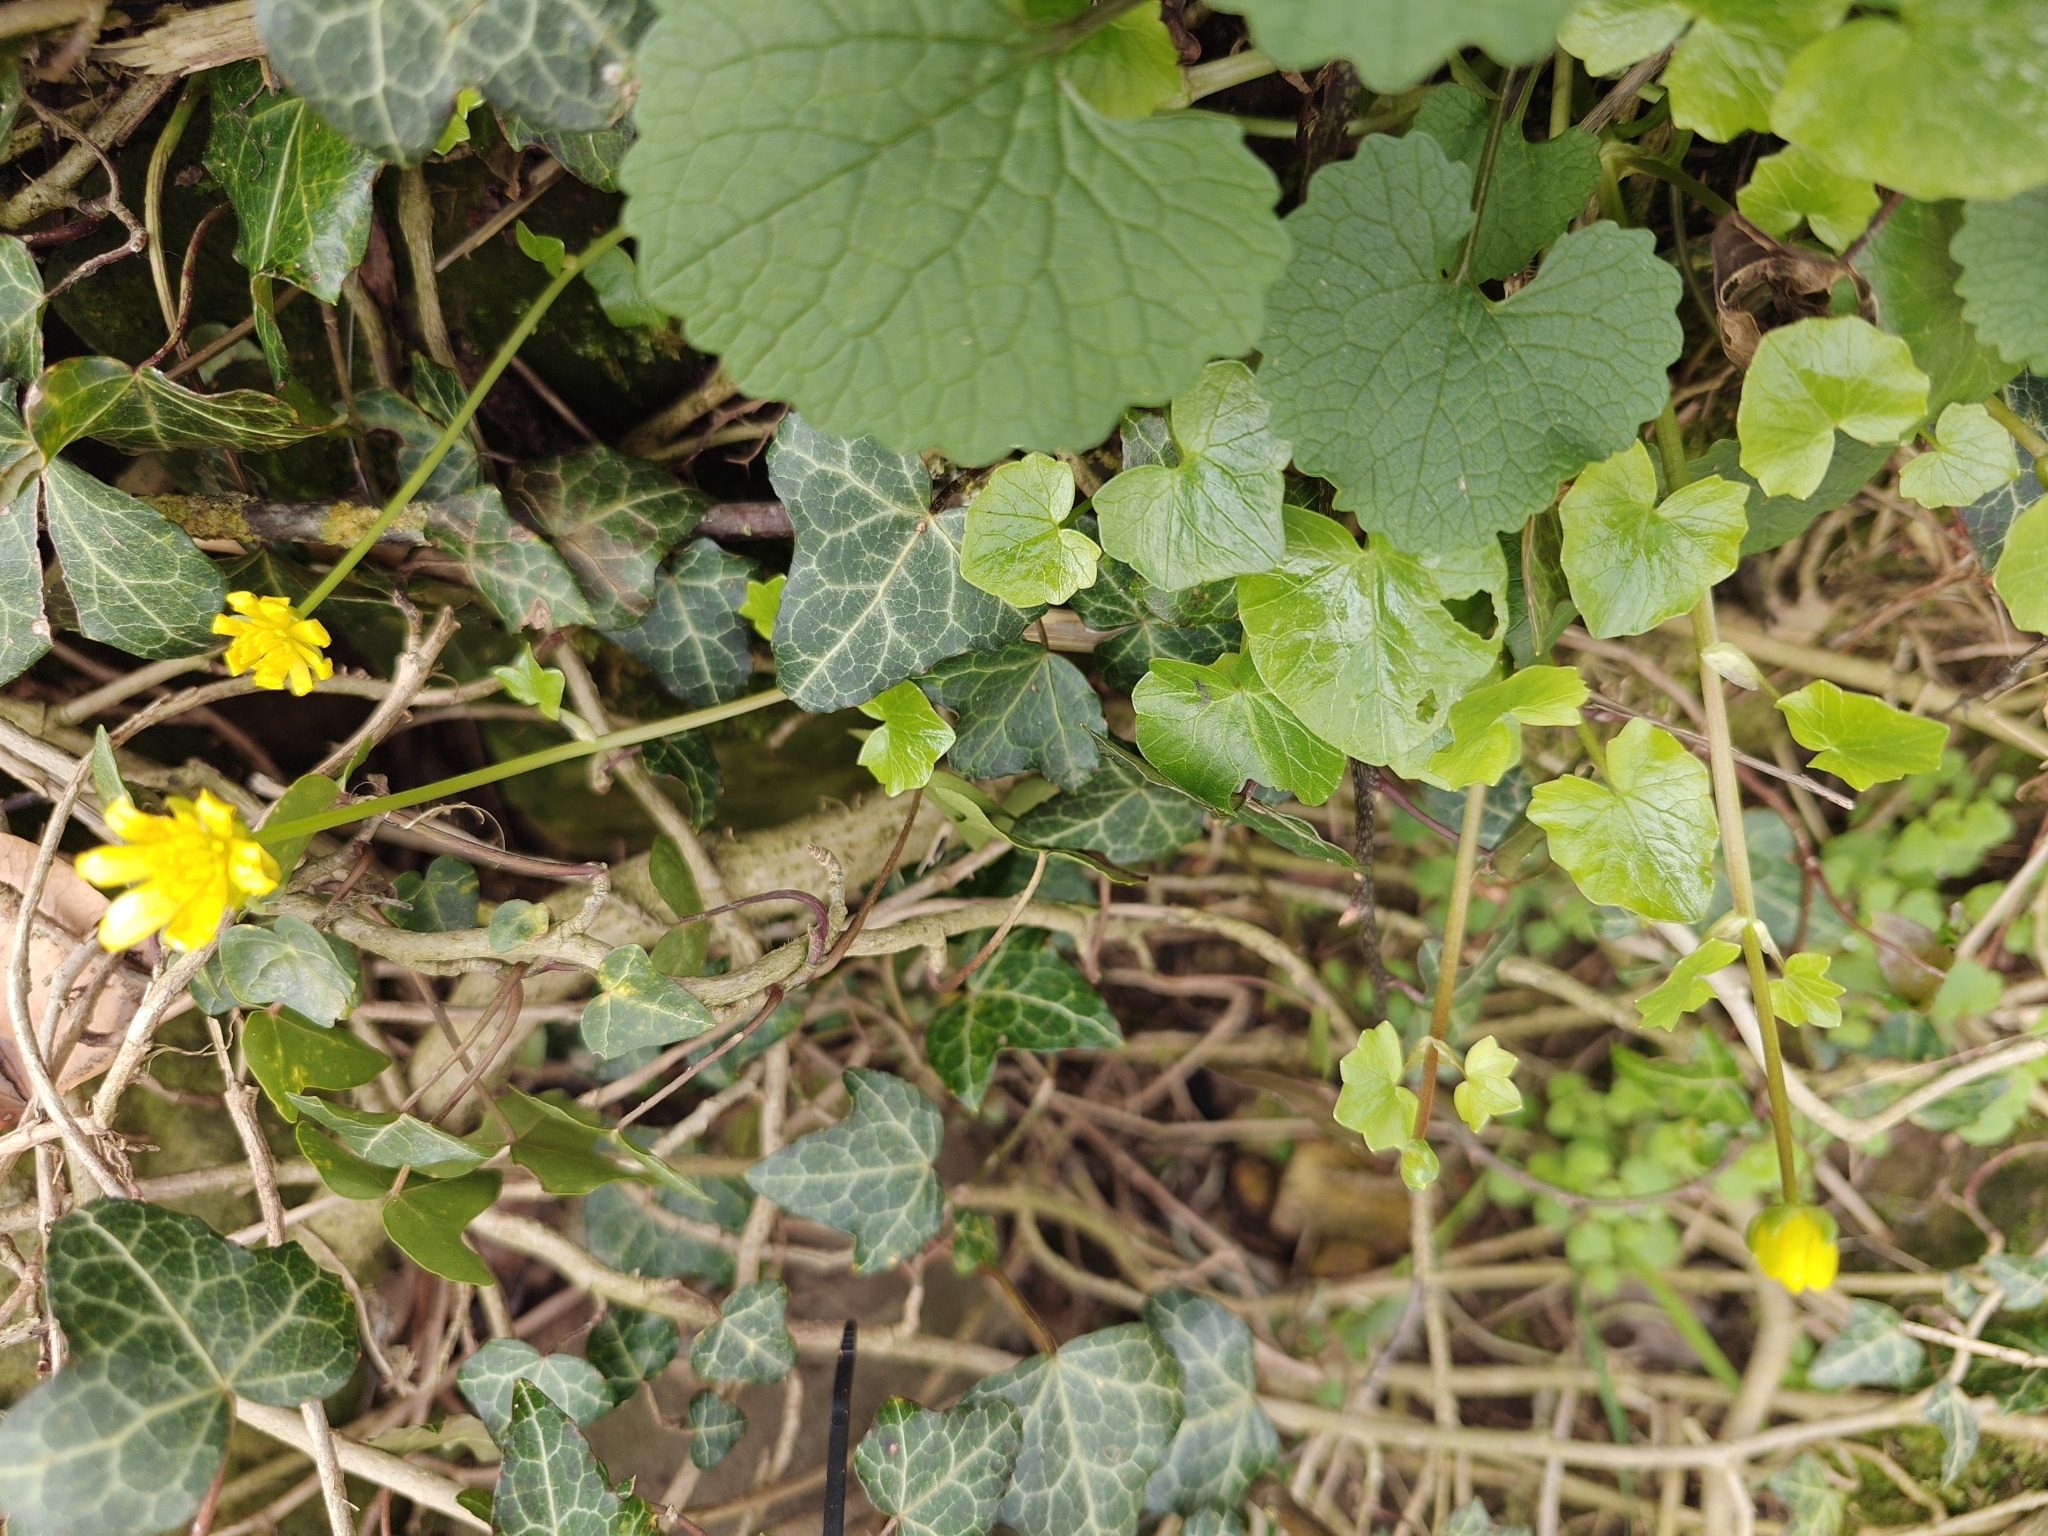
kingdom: Plantae
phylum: Tracheophyta
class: Magnoliopsida
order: Ranunculales
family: Ranunculaceae
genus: Ficaria
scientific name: Ficaria verna
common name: Lesser celandine
